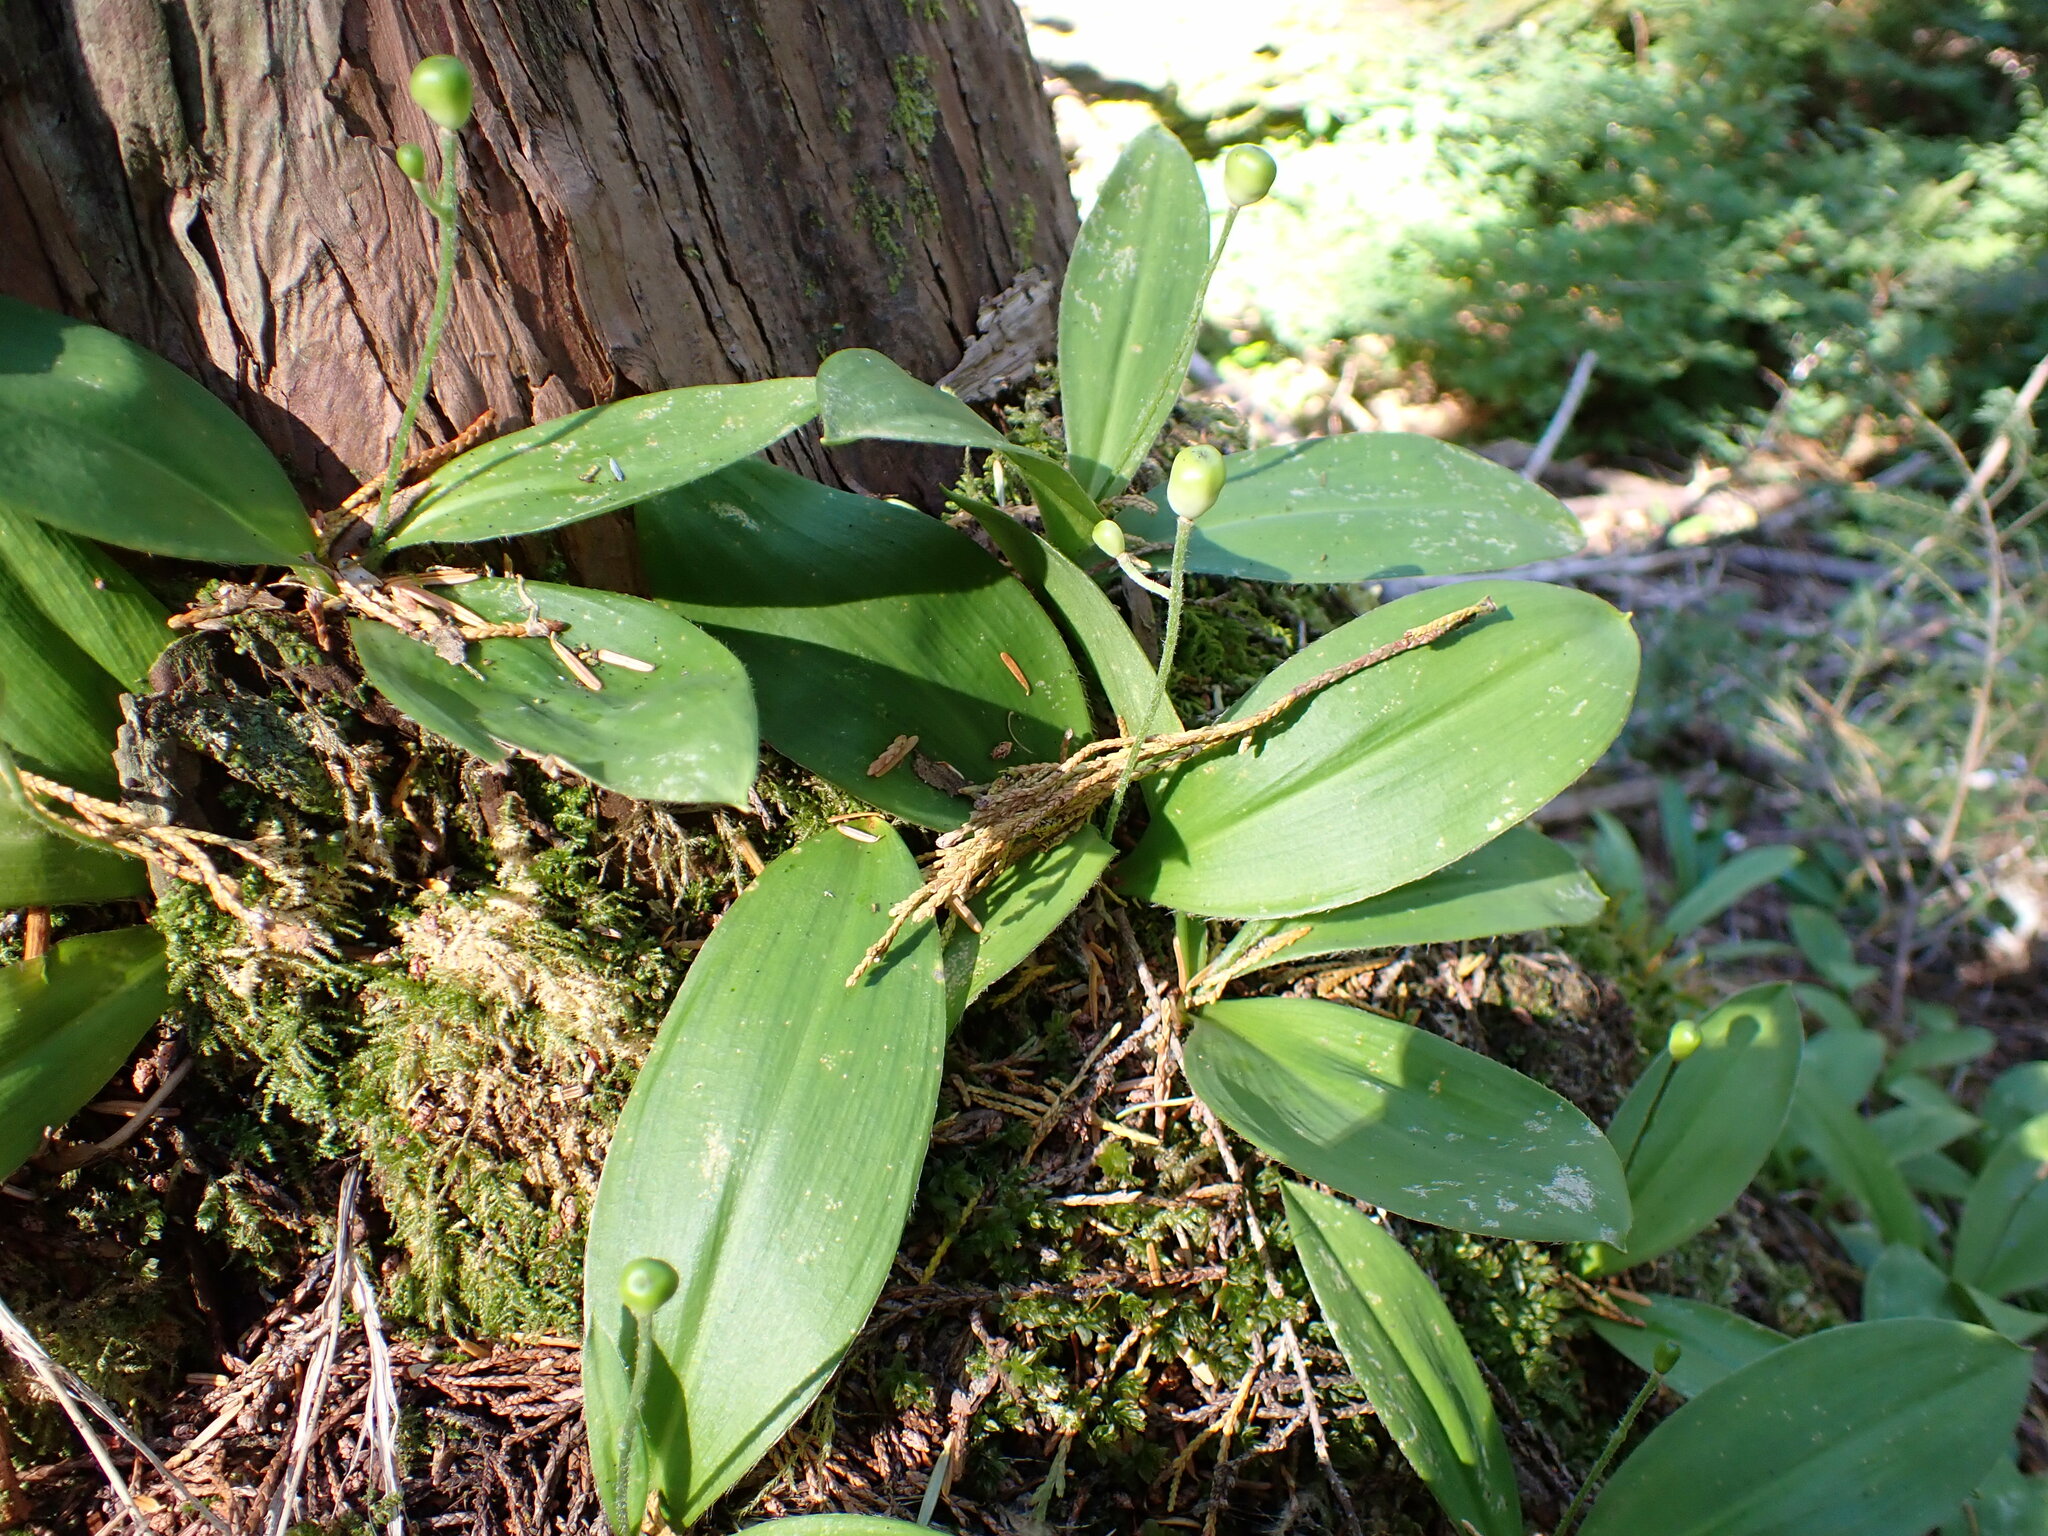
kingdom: Plantae
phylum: Tracheophyta
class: Liliopsida
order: Liliales
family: Liliaceae
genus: Clintonia
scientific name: Clintonia uniflora
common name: Queen's cup
